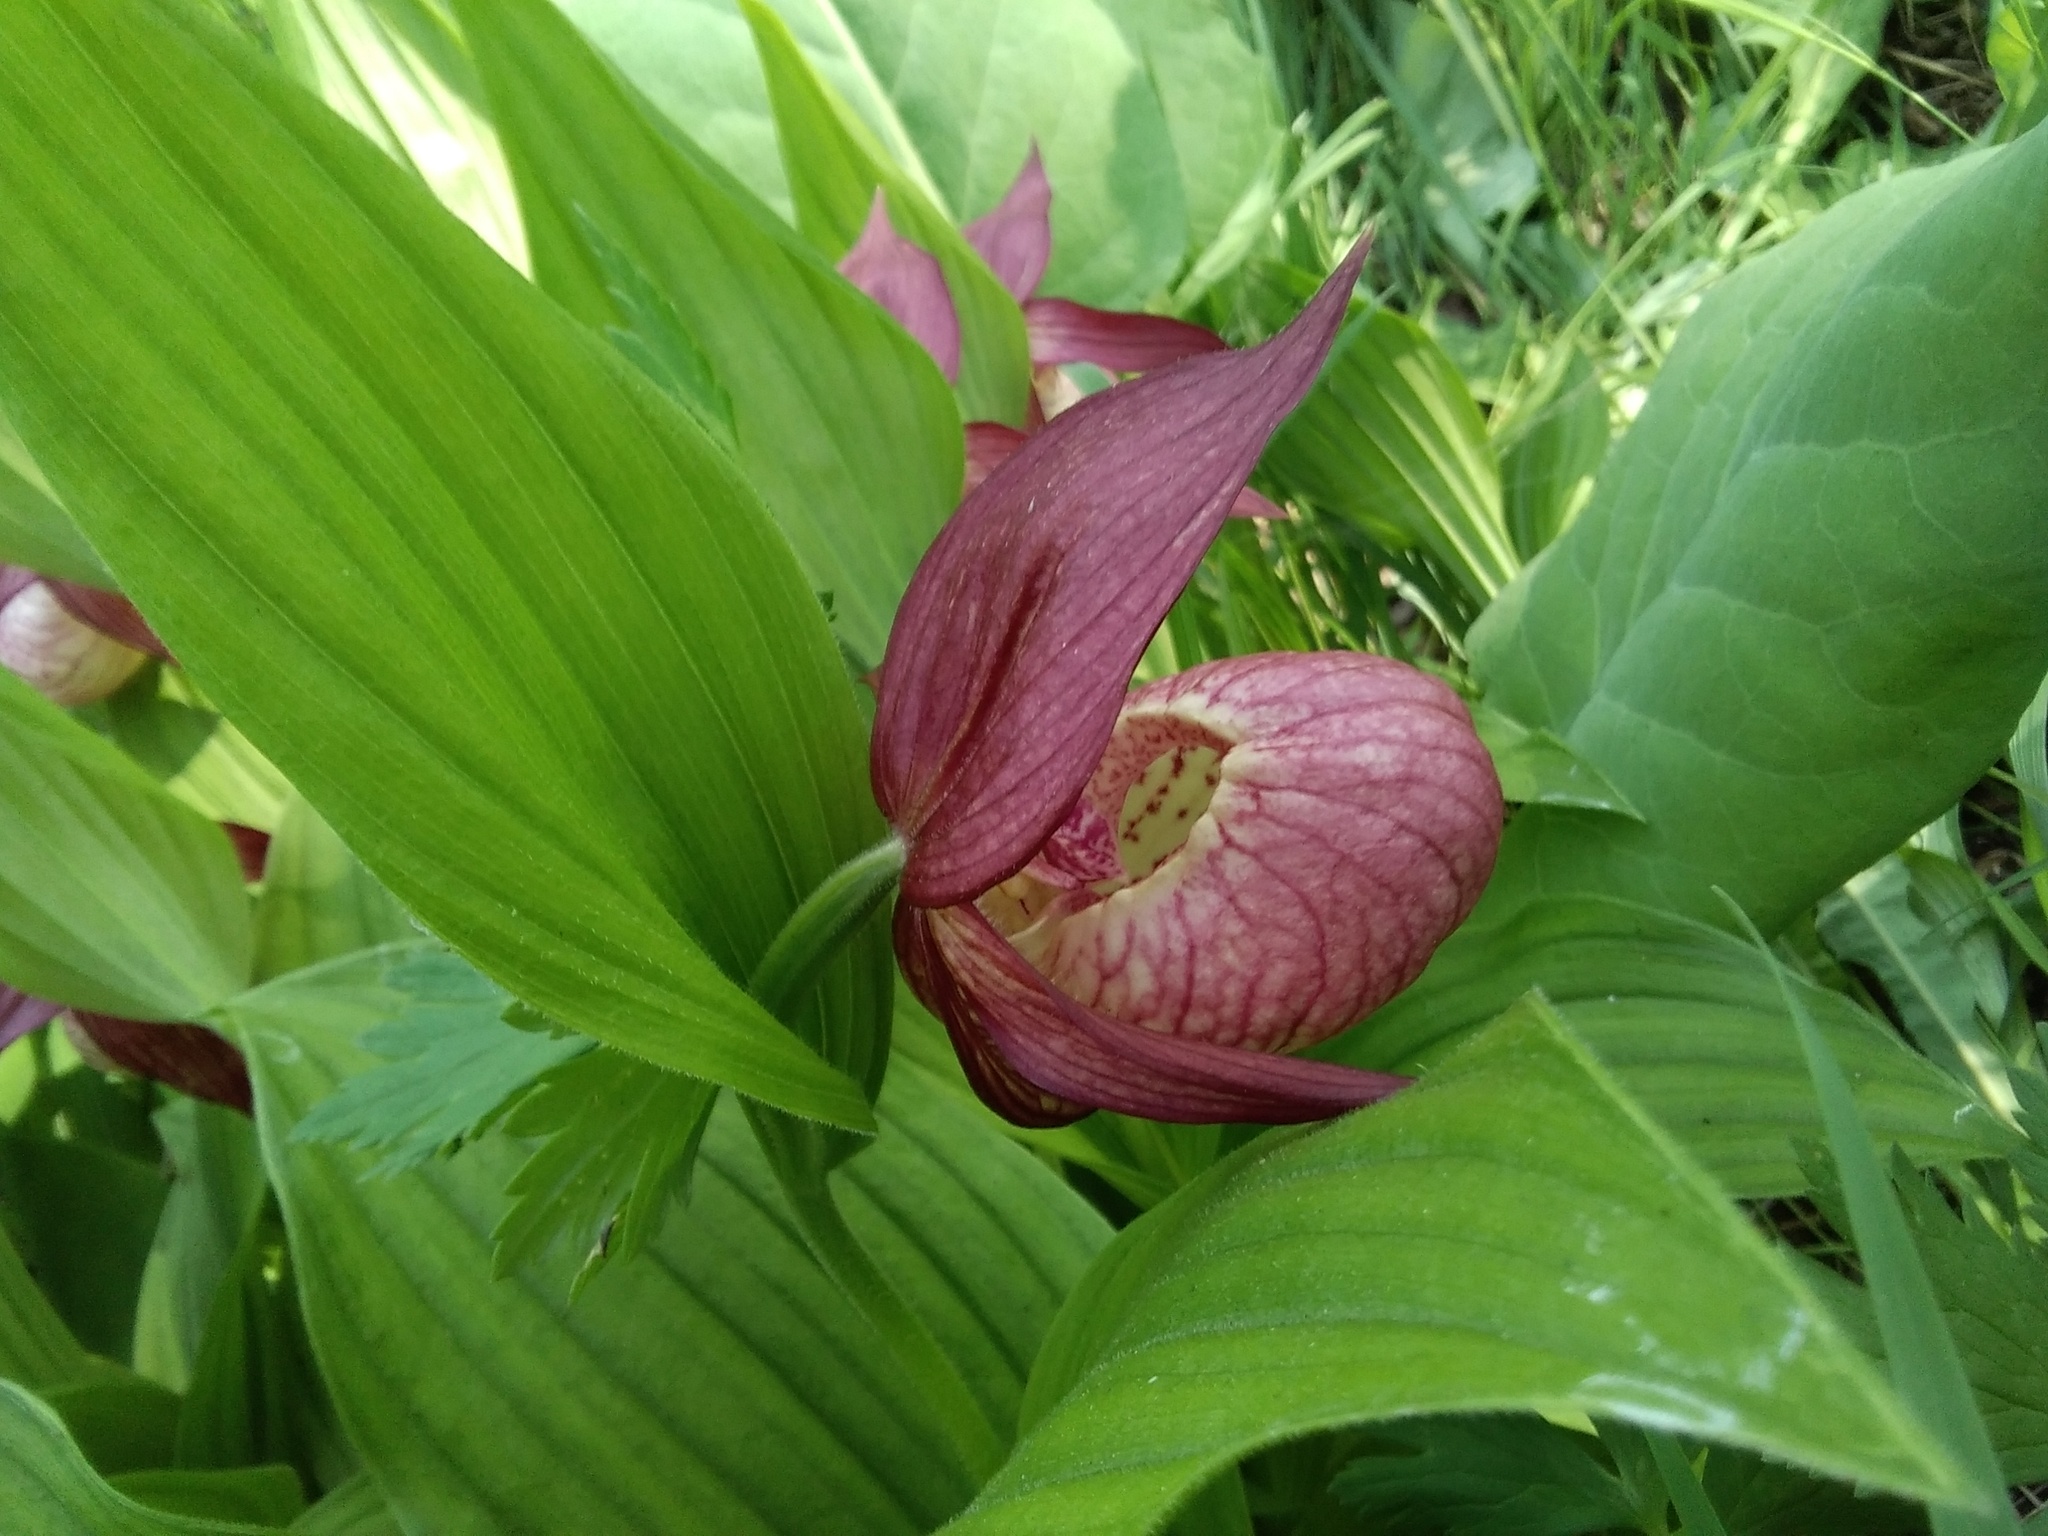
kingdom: Plantae
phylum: Tracheophyta
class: Liliopsida
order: Asparagales
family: Orchidaceae
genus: Cypripedium
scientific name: Cypripedium ventricosum
